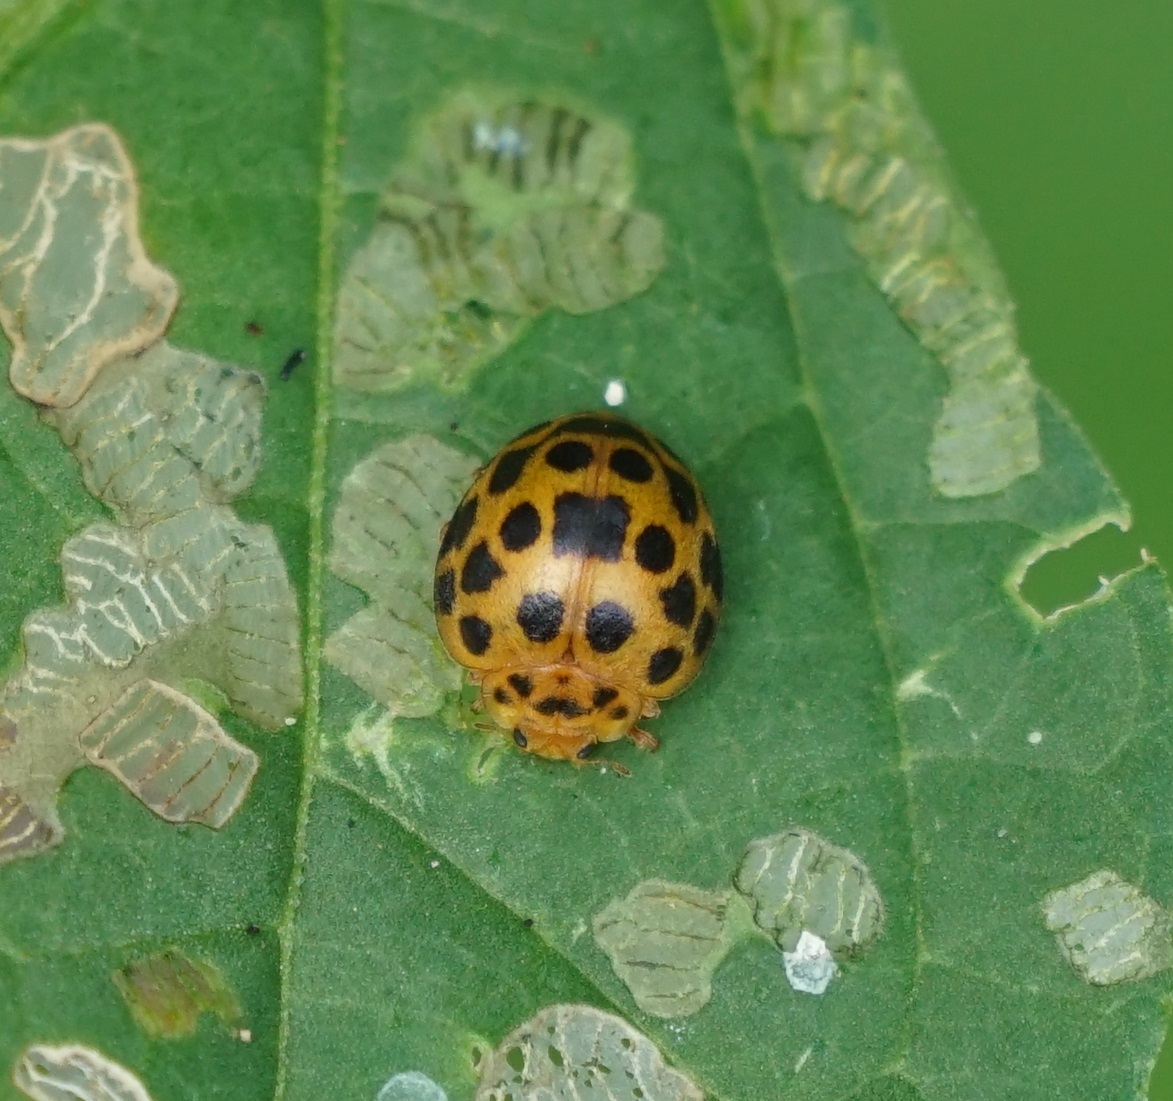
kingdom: Animalia
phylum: Arthropoda
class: Insecta
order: Coleoptera
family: Coccinellidae
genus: Henosepilachna
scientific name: Henosepilachna vigintioctopunctata
